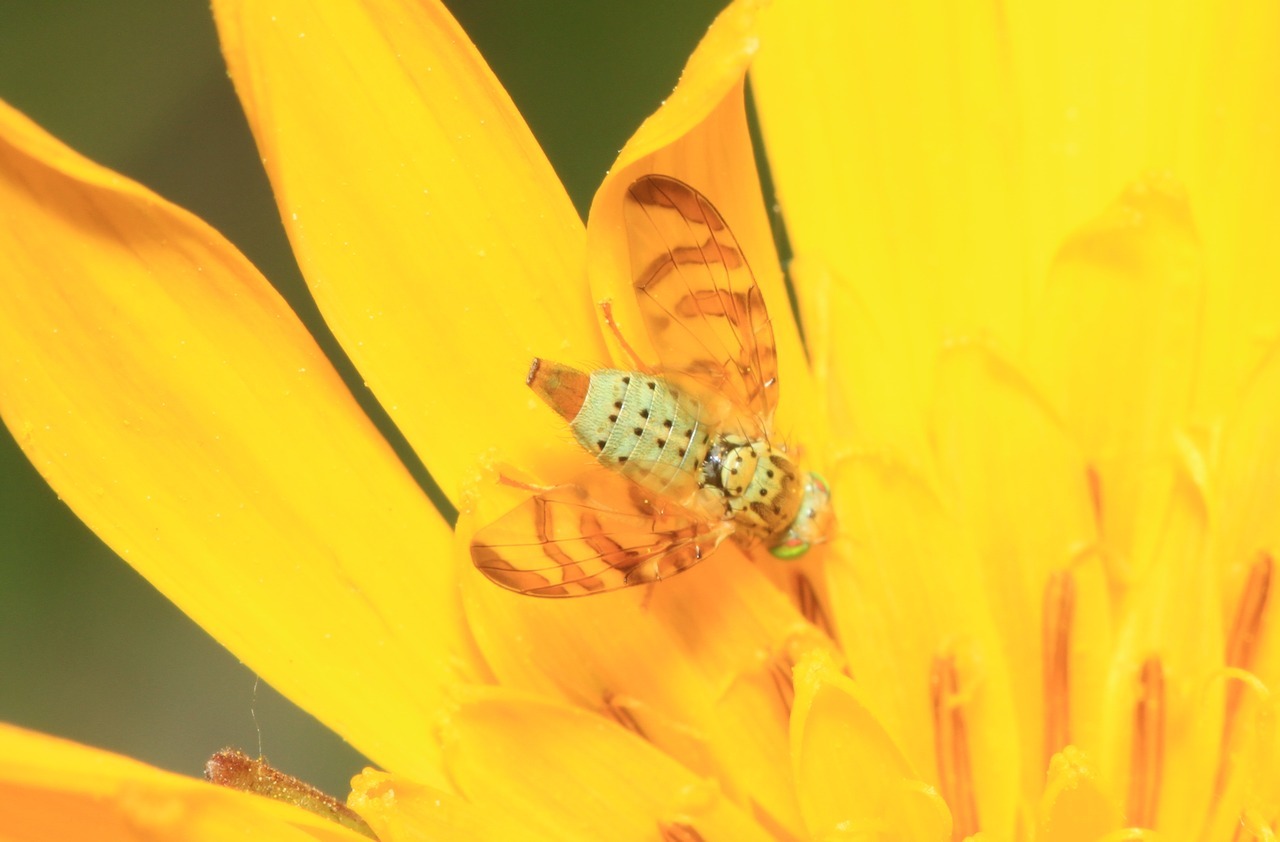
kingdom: Animalia
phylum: Arthropoda
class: Insecta
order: Diptera
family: Tephritidae
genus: Orellia
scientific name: Orellia falcata
